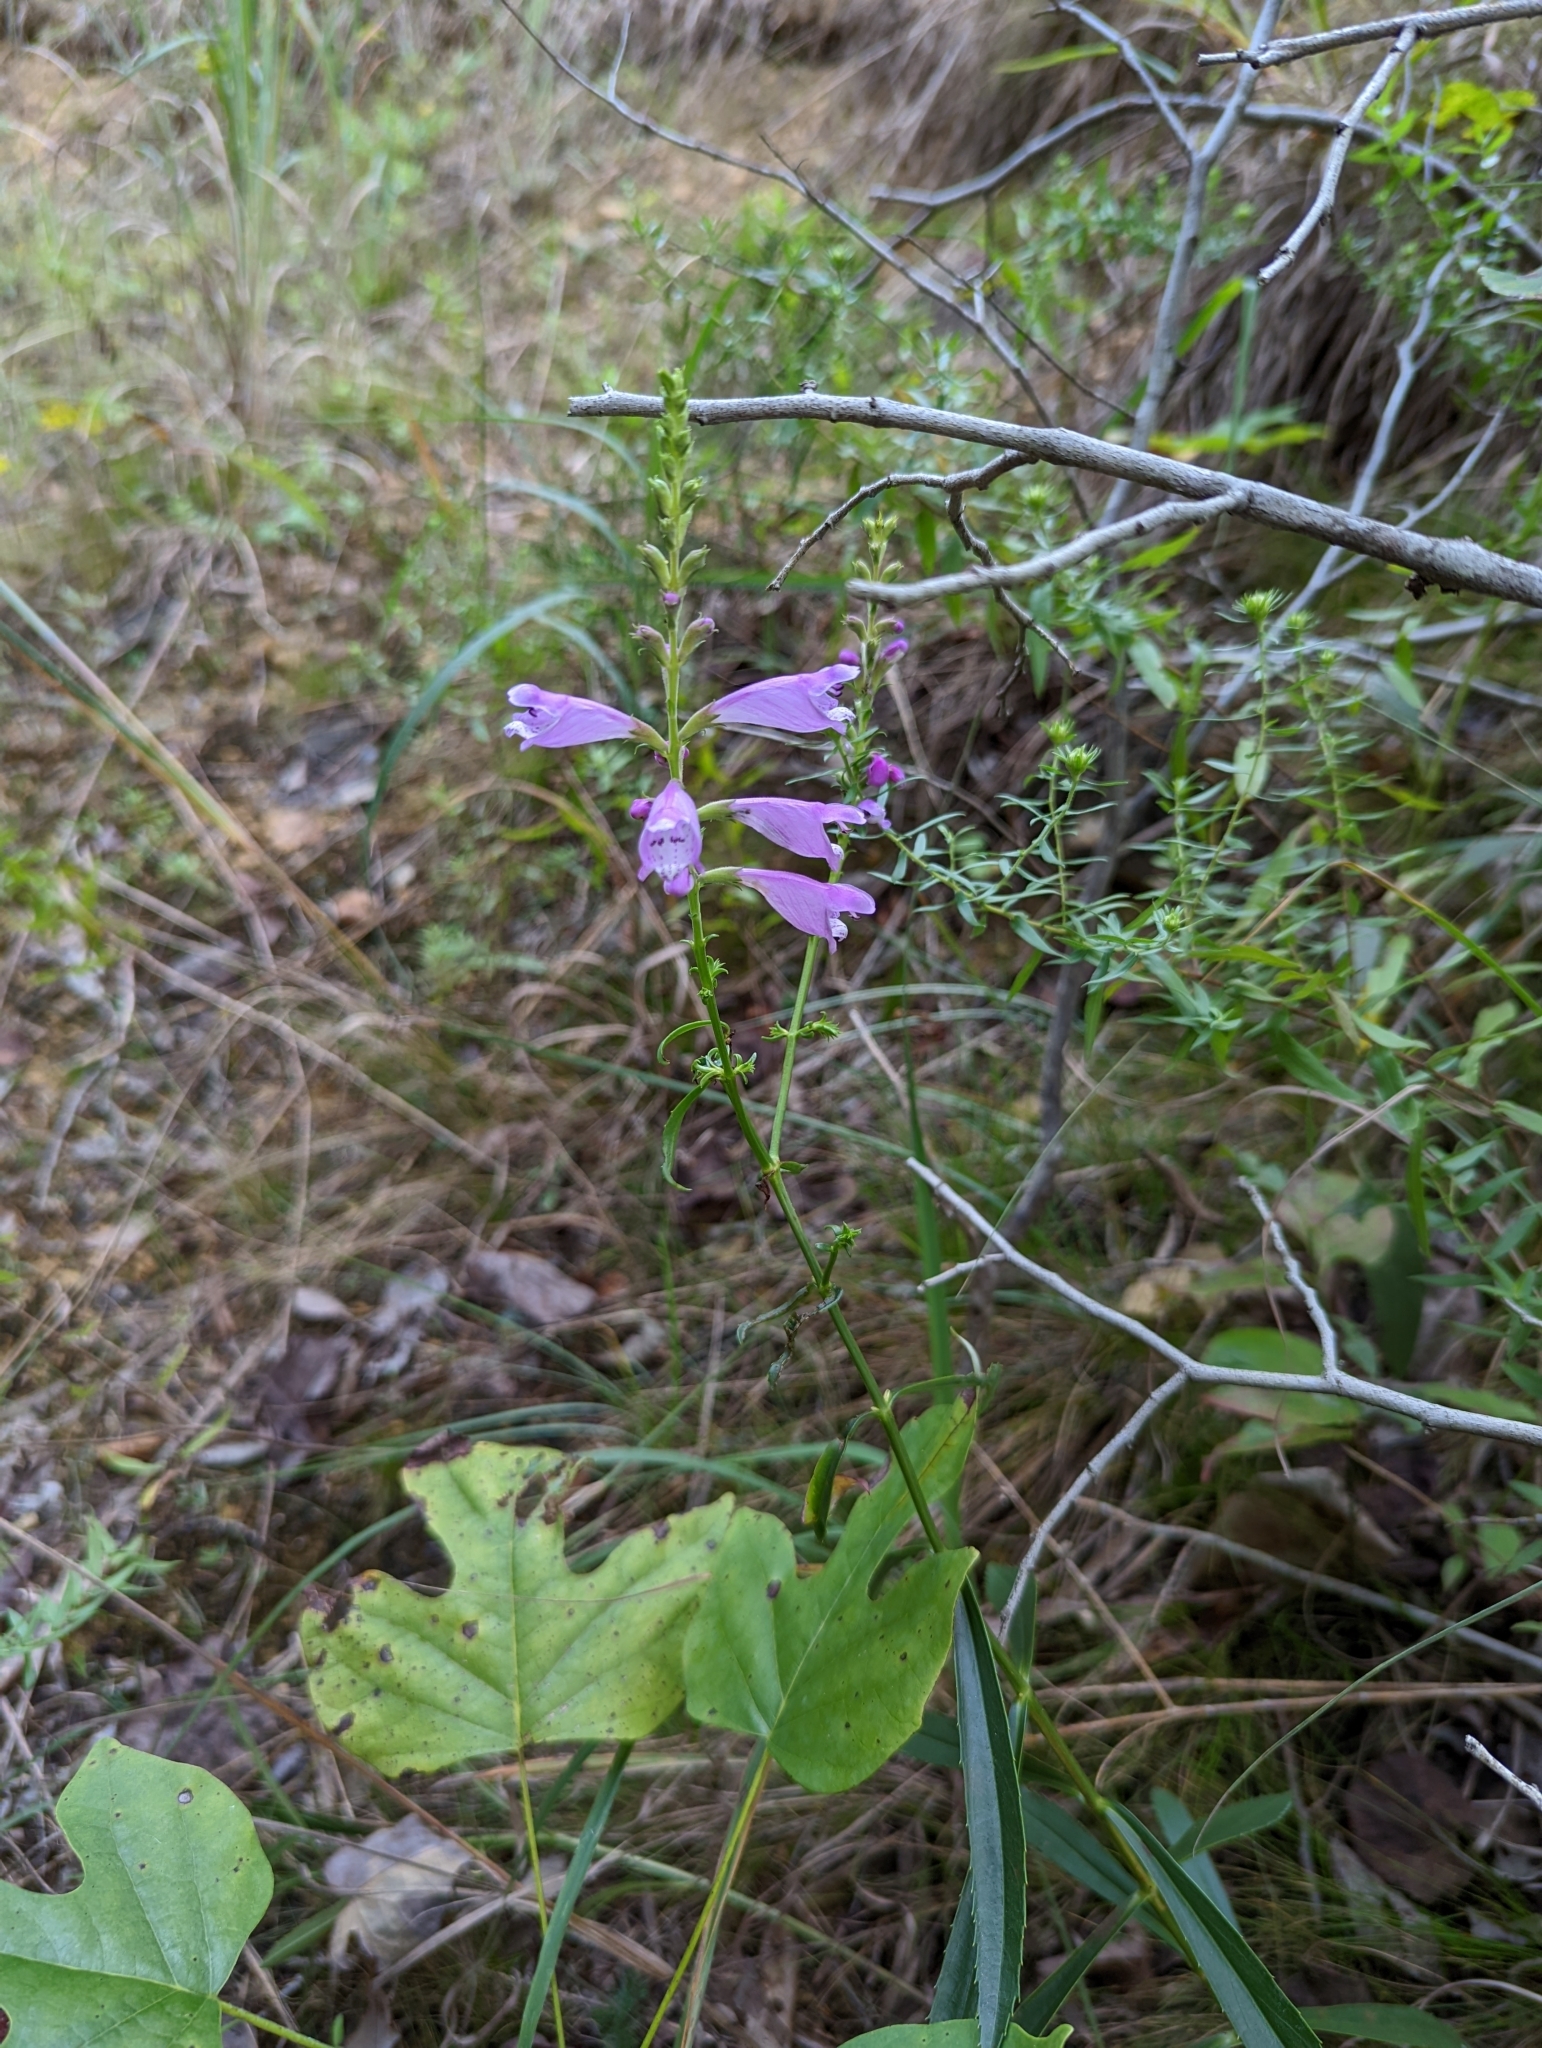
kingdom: Plantae
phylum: Tracheophyta
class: Magnoliopsida
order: Lamiales
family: Lamiaceae
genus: Physostegia
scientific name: Physostegia virginiana
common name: Obedient-plant
